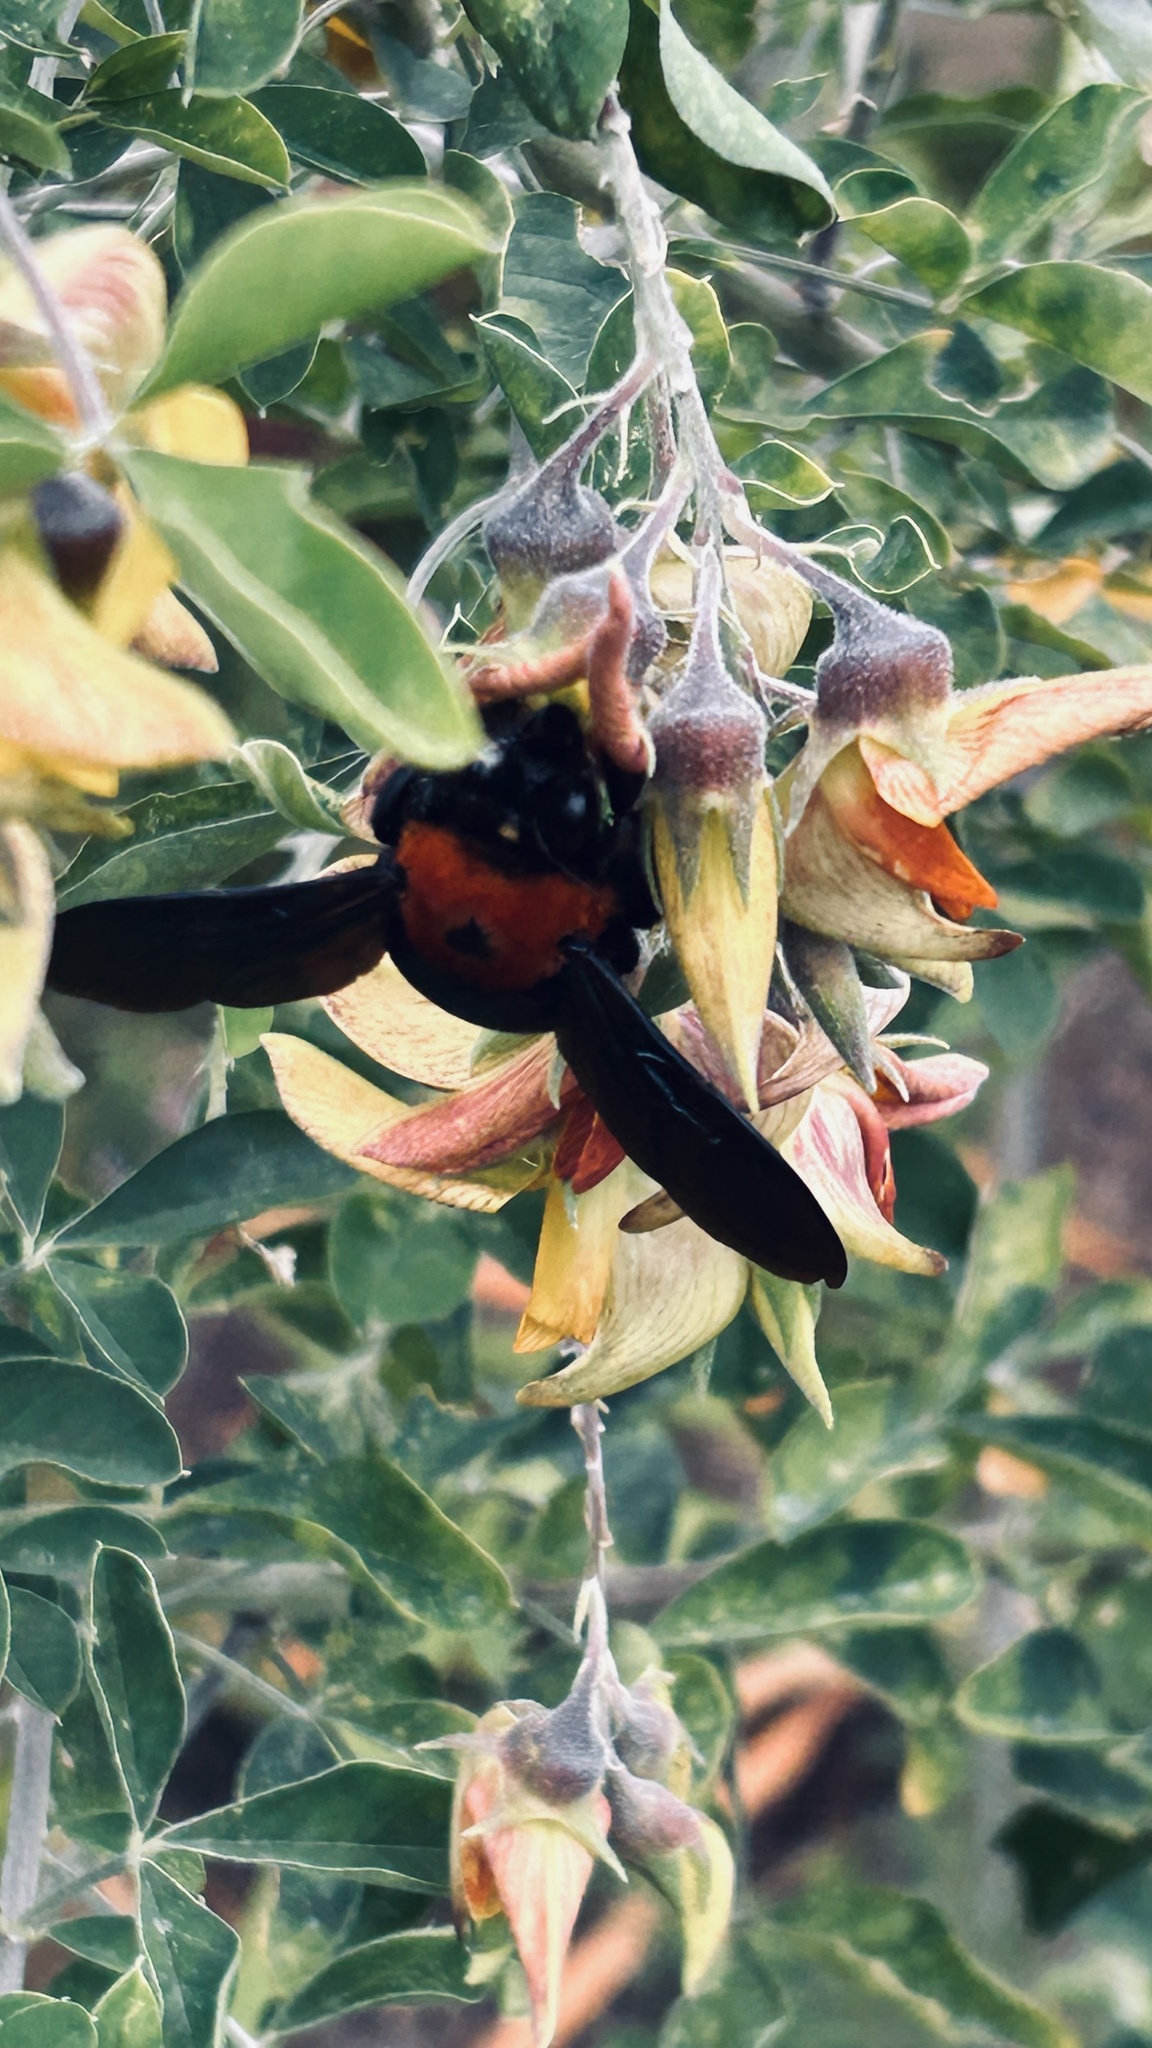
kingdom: Animalia
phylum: Arthropoda
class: Insecta
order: Hymenoptera
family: Apidae
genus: Xylocopa
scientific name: Xylocopa flavorufa
